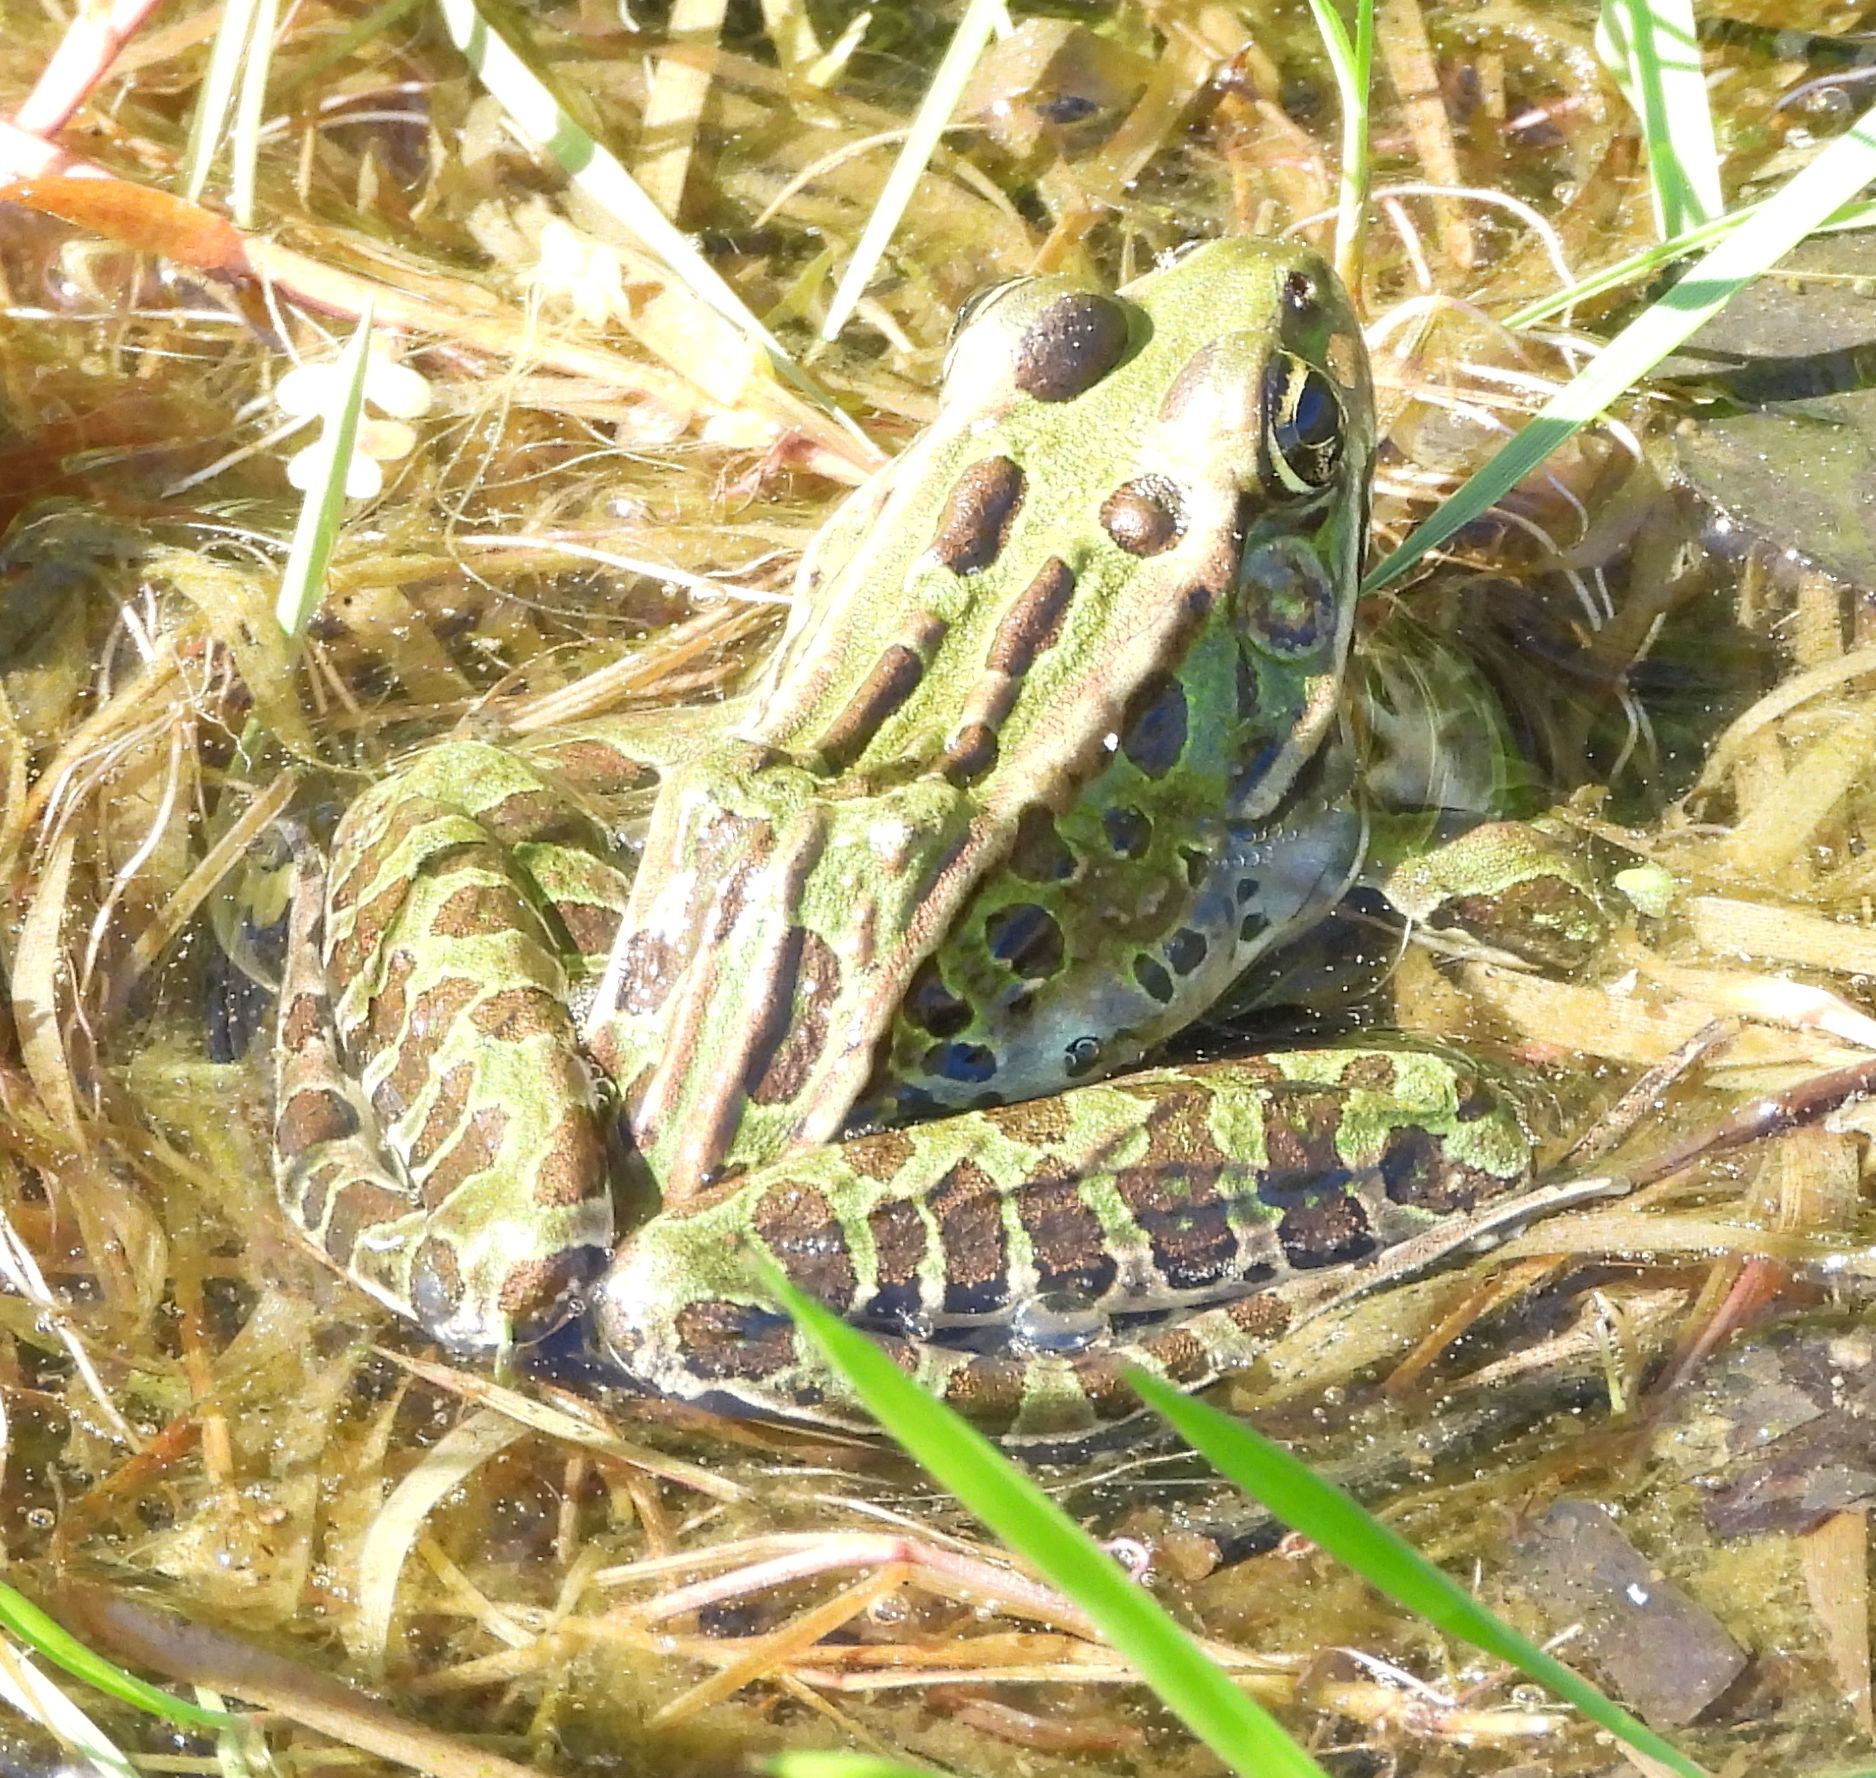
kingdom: Animalia
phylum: Chordata
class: Amphibia
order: Anura
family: Ranidae
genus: Lithobates
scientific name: Lithobates pipiens
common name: Northern leopard frog
